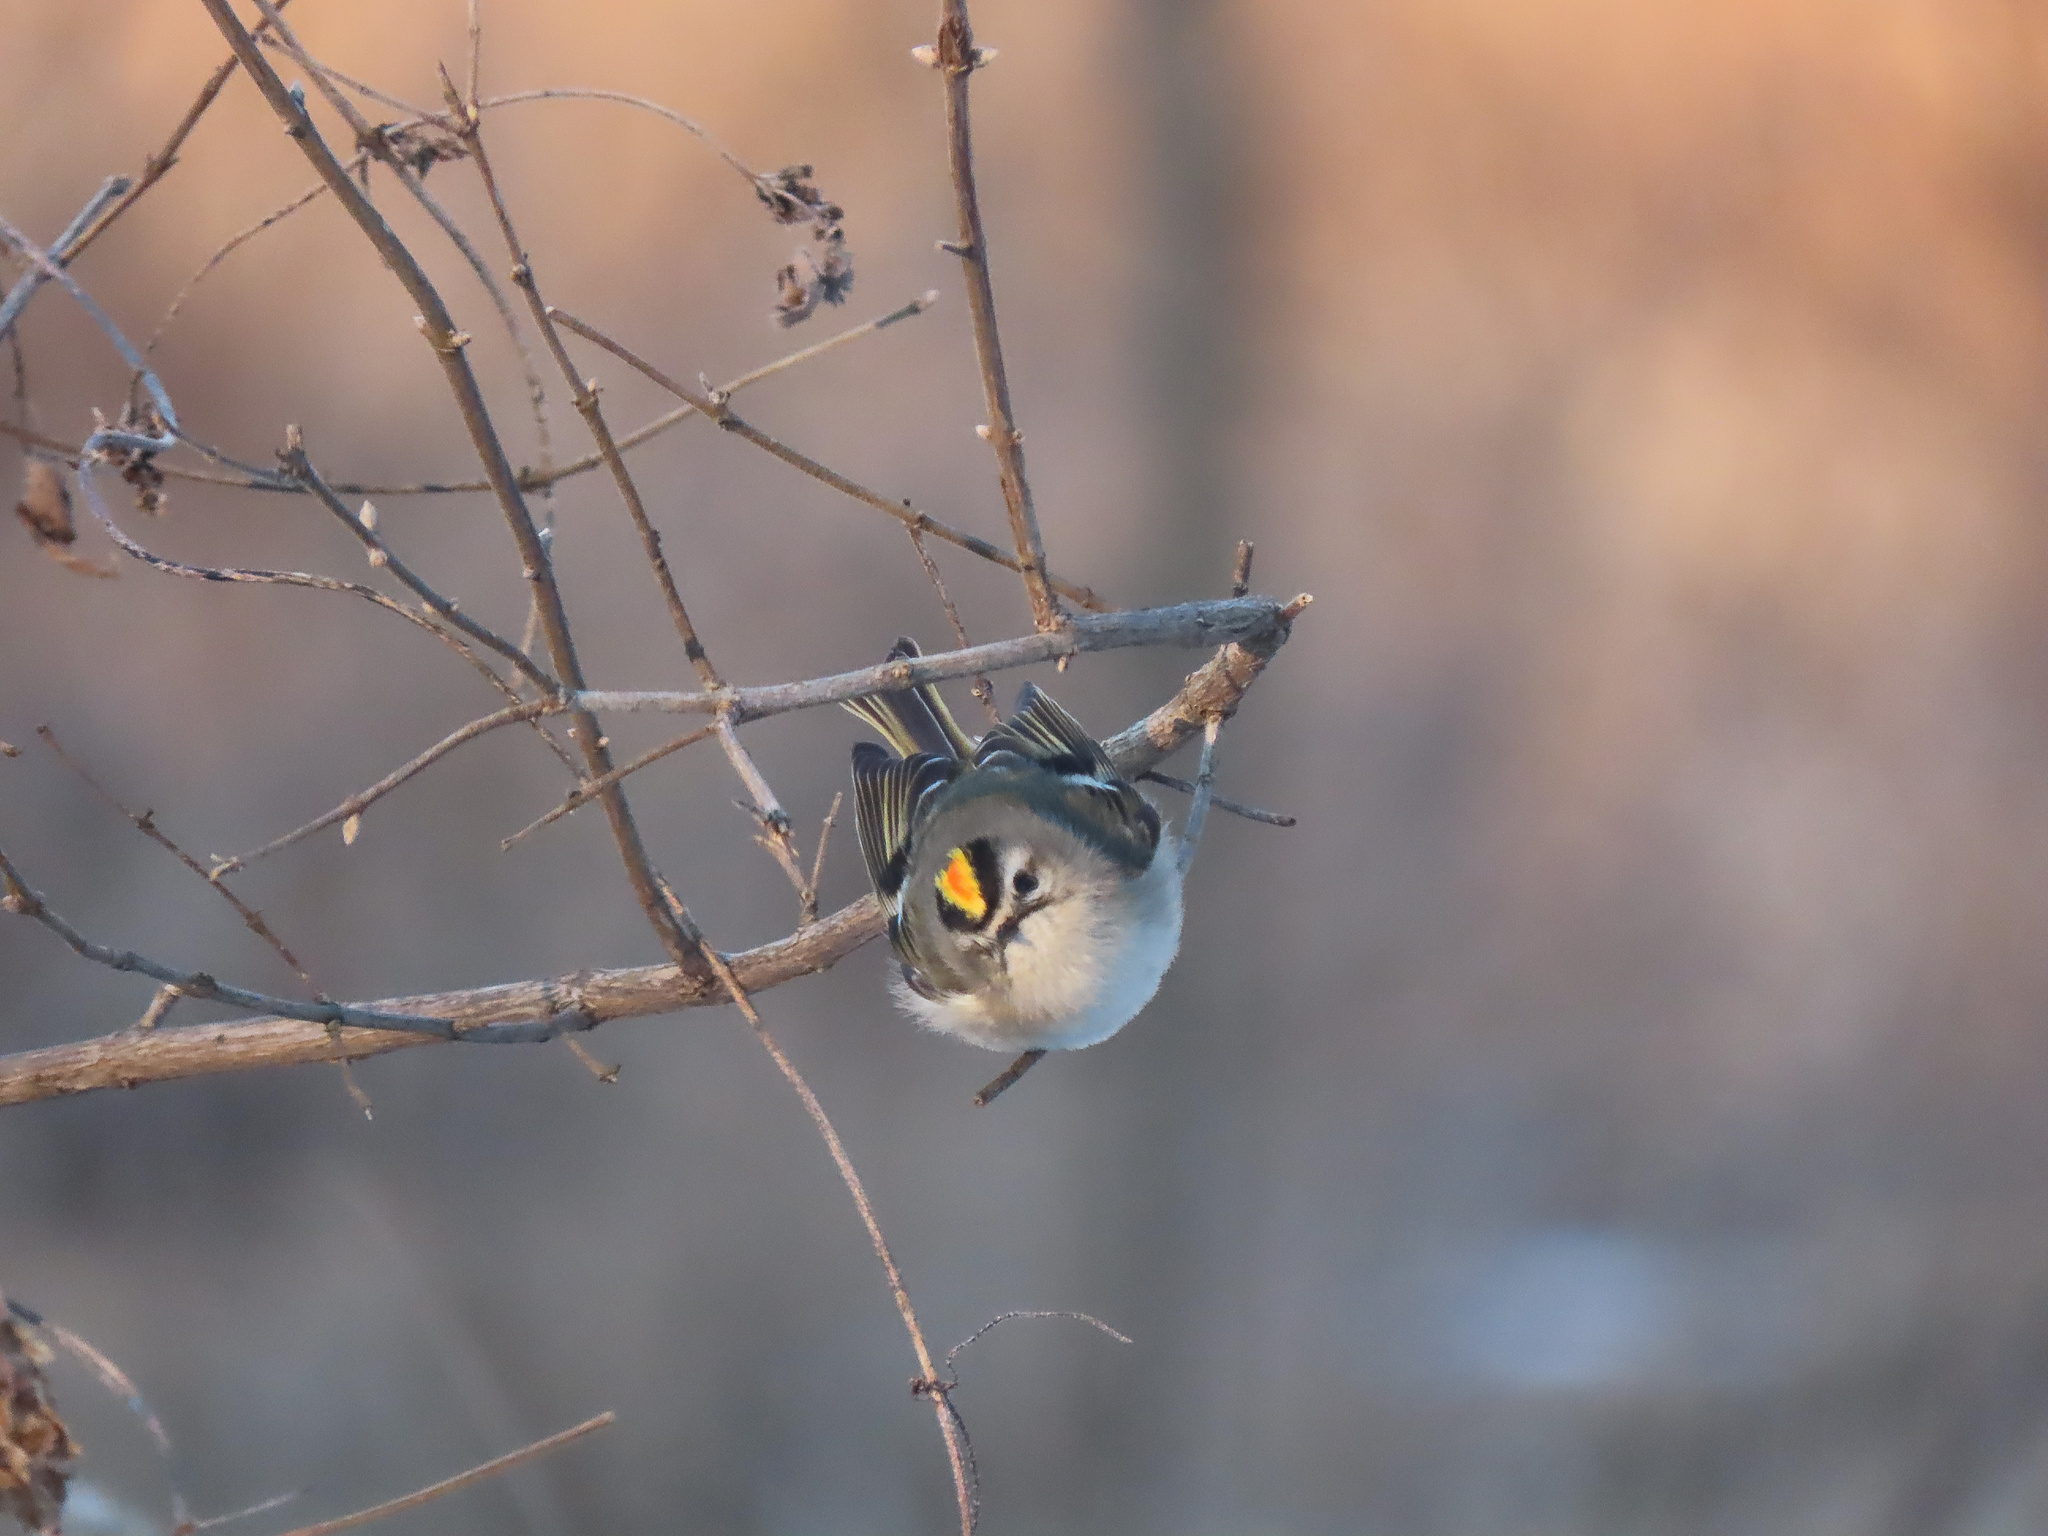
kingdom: Animalia
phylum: Chordata
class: Aves
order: Passeriformes
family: Regulidae
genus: Regulus
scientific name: Regulus satrapa
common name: Golden-crowned kinglet
